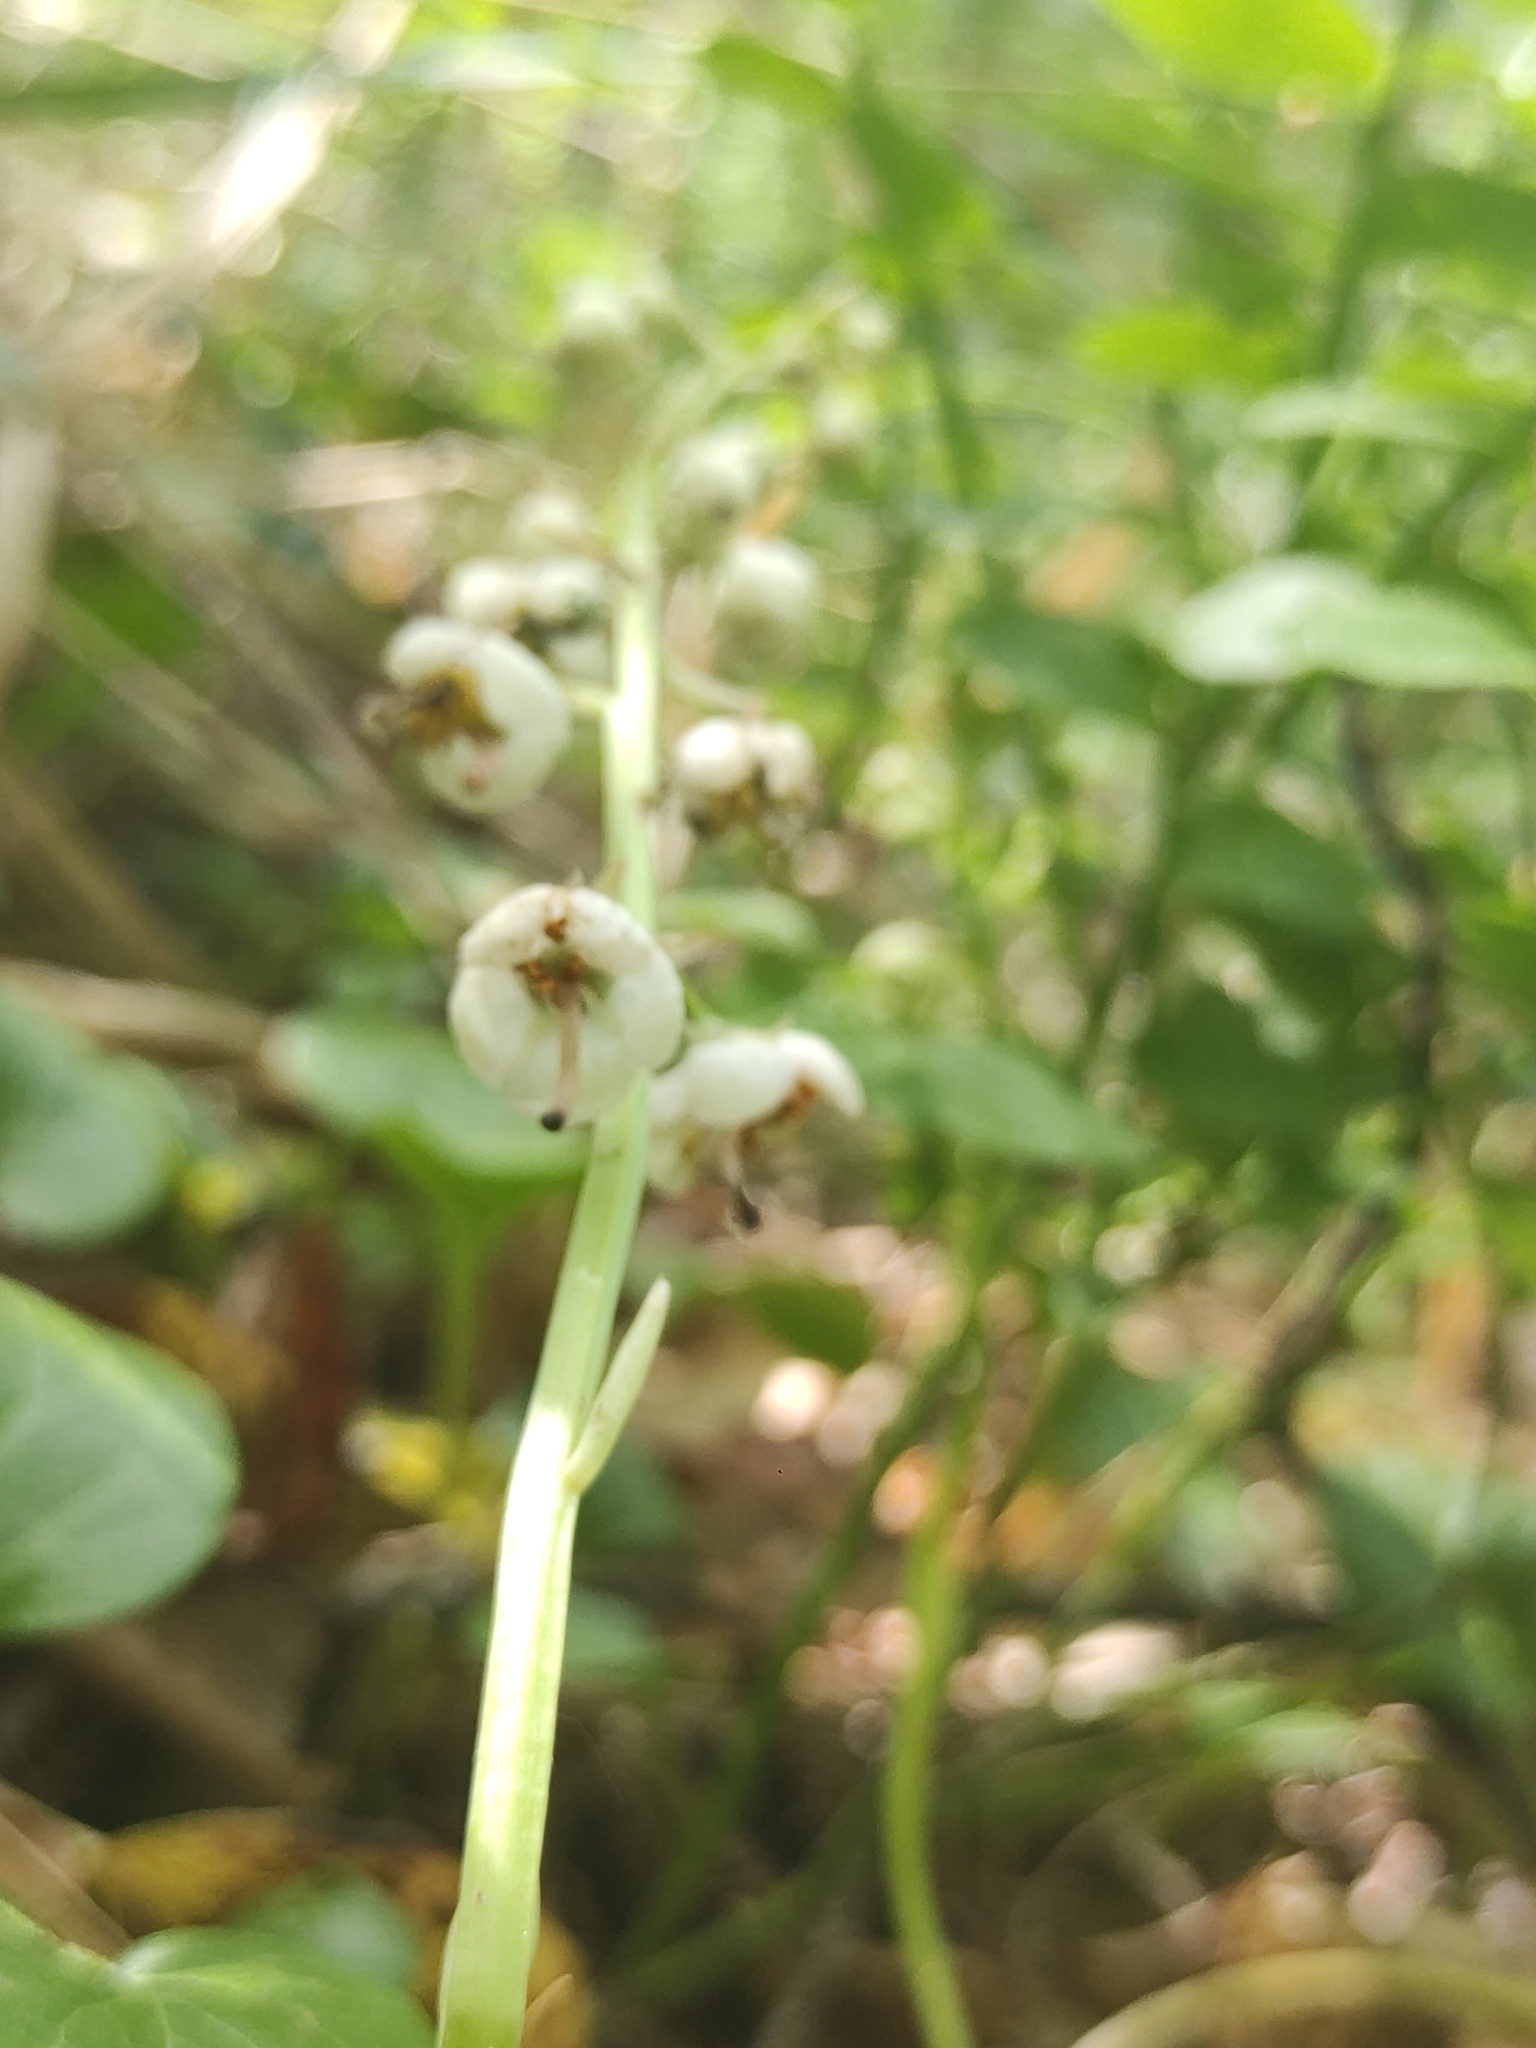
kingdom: Plantae
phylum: Tracheophyta
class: Magnoliopsida
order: Ericales
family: Ericaceae
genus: Pyrola
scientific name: Pyrola rotundifolia
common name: Round-leaved wintergreen
